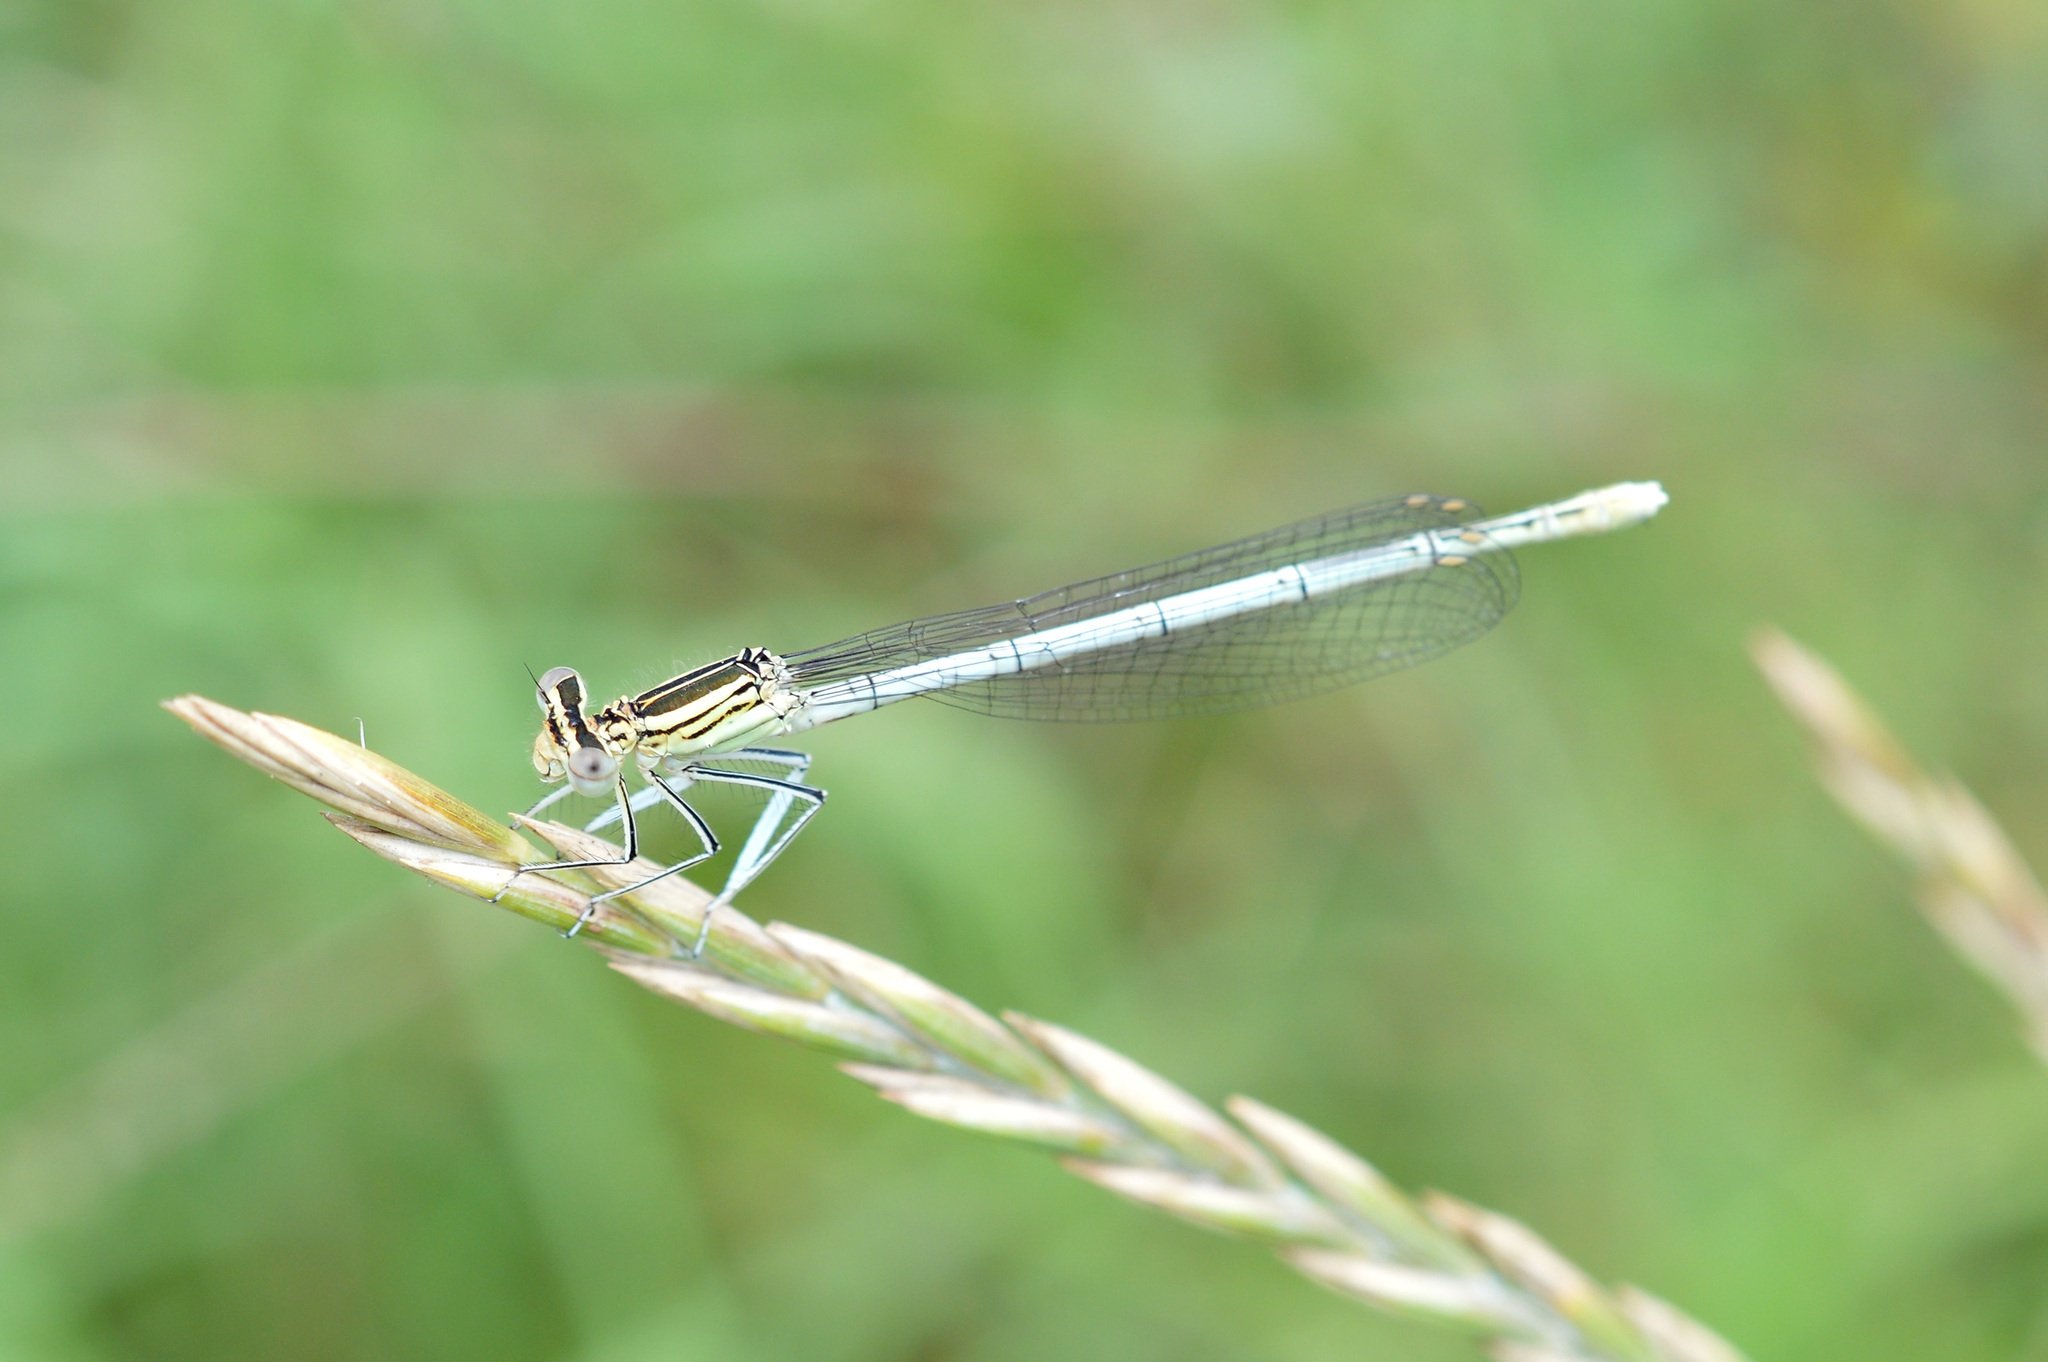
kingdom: Animalia
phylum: Arthropoda
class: Insecta
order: Odonata
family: Platycnemididae
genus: Platycnemis
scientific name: Platycnemis pennipes
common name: White-legged damselfly
